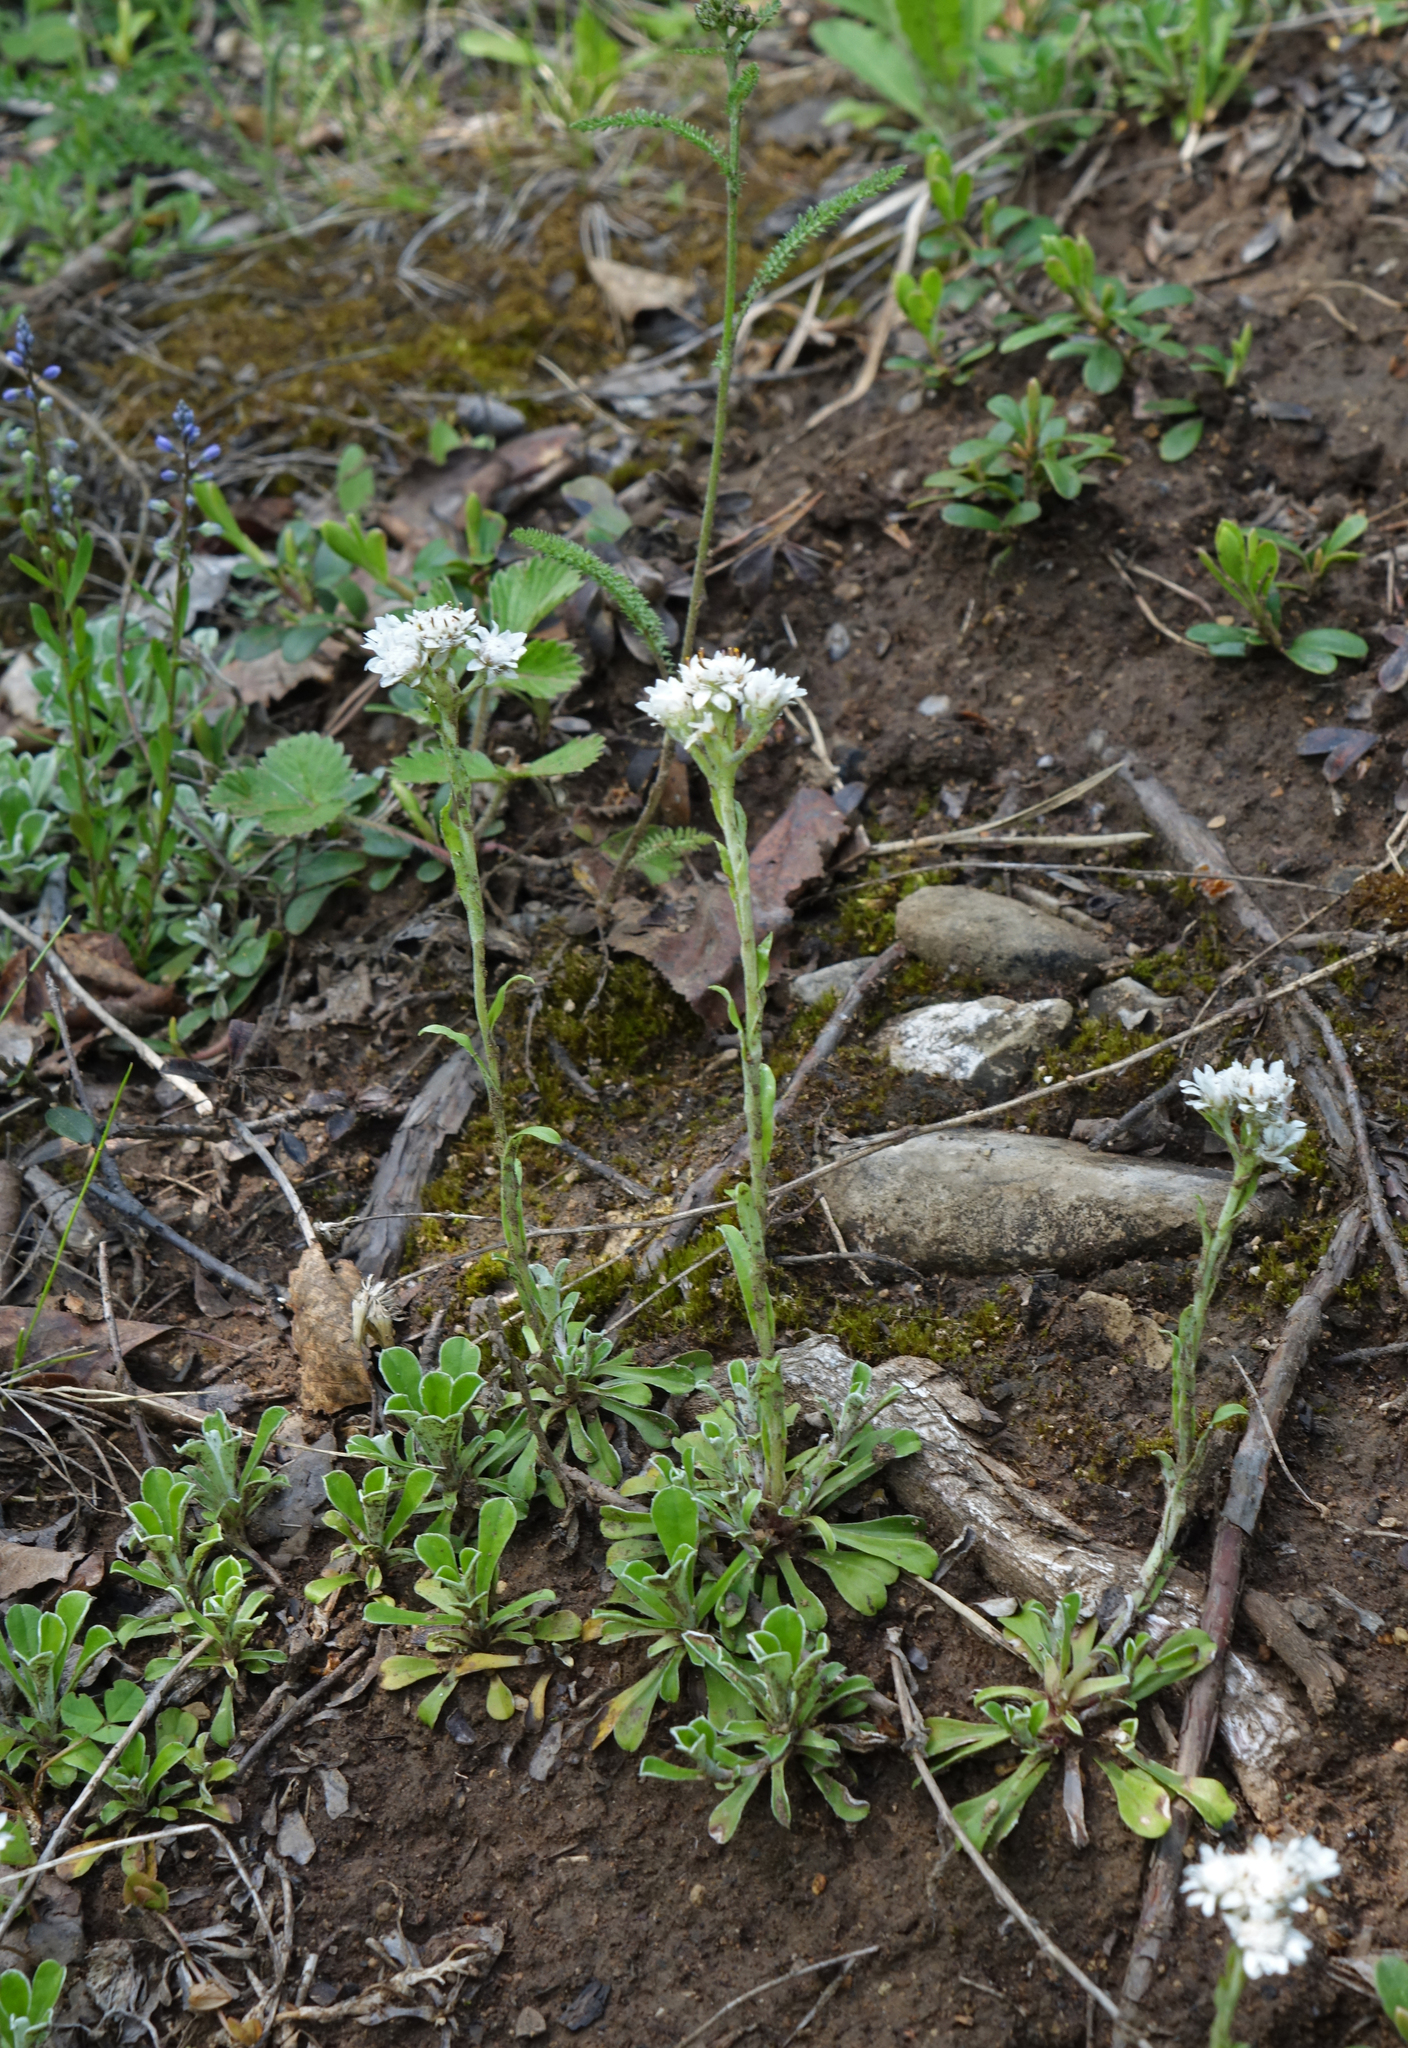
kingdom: Plantae
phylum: Tracheophyta
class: Magnoliopsida
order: Asterales
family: Asteraceae
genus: Antennaria
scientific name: Antennaria dioica
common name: Mountain everlasting
